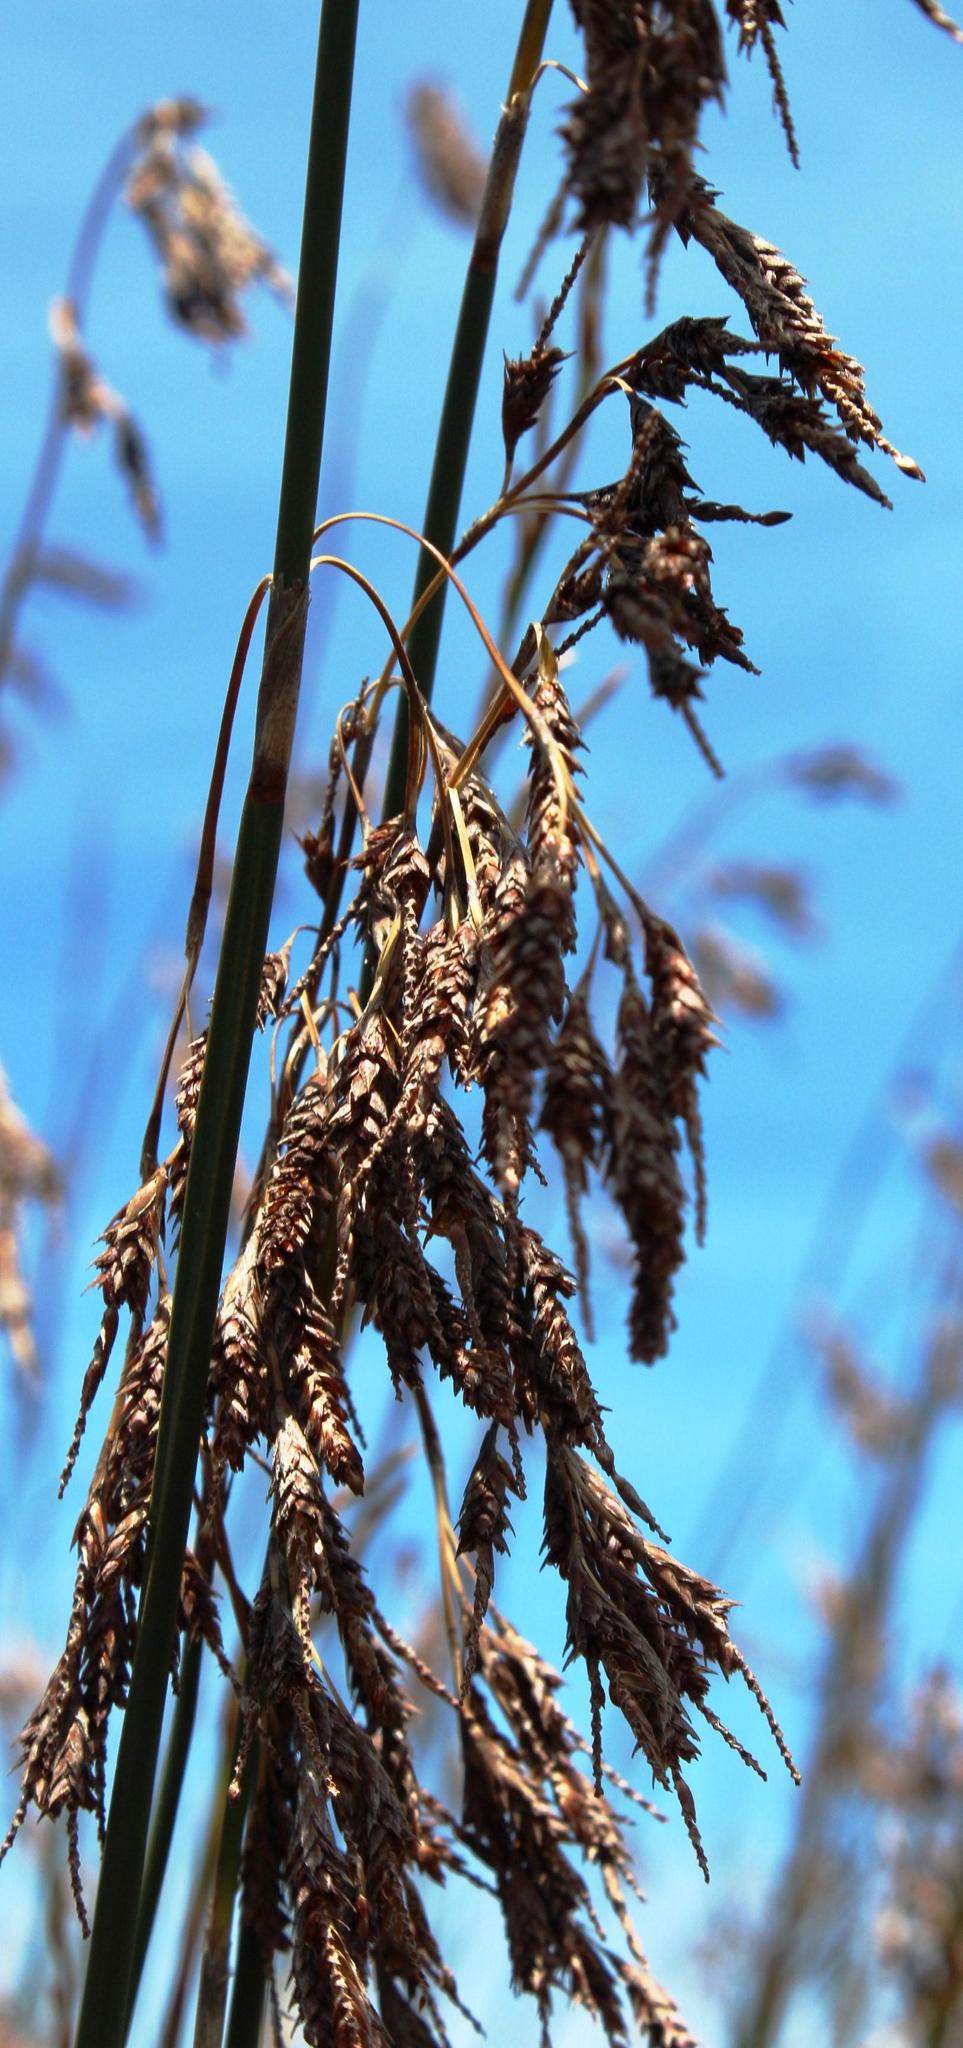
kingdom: Plantae
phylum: Tracheophyta
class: Liliopsida
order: Poales
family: Restionaceae
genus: Thamnochortus
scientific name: Thamnochortus erectus
